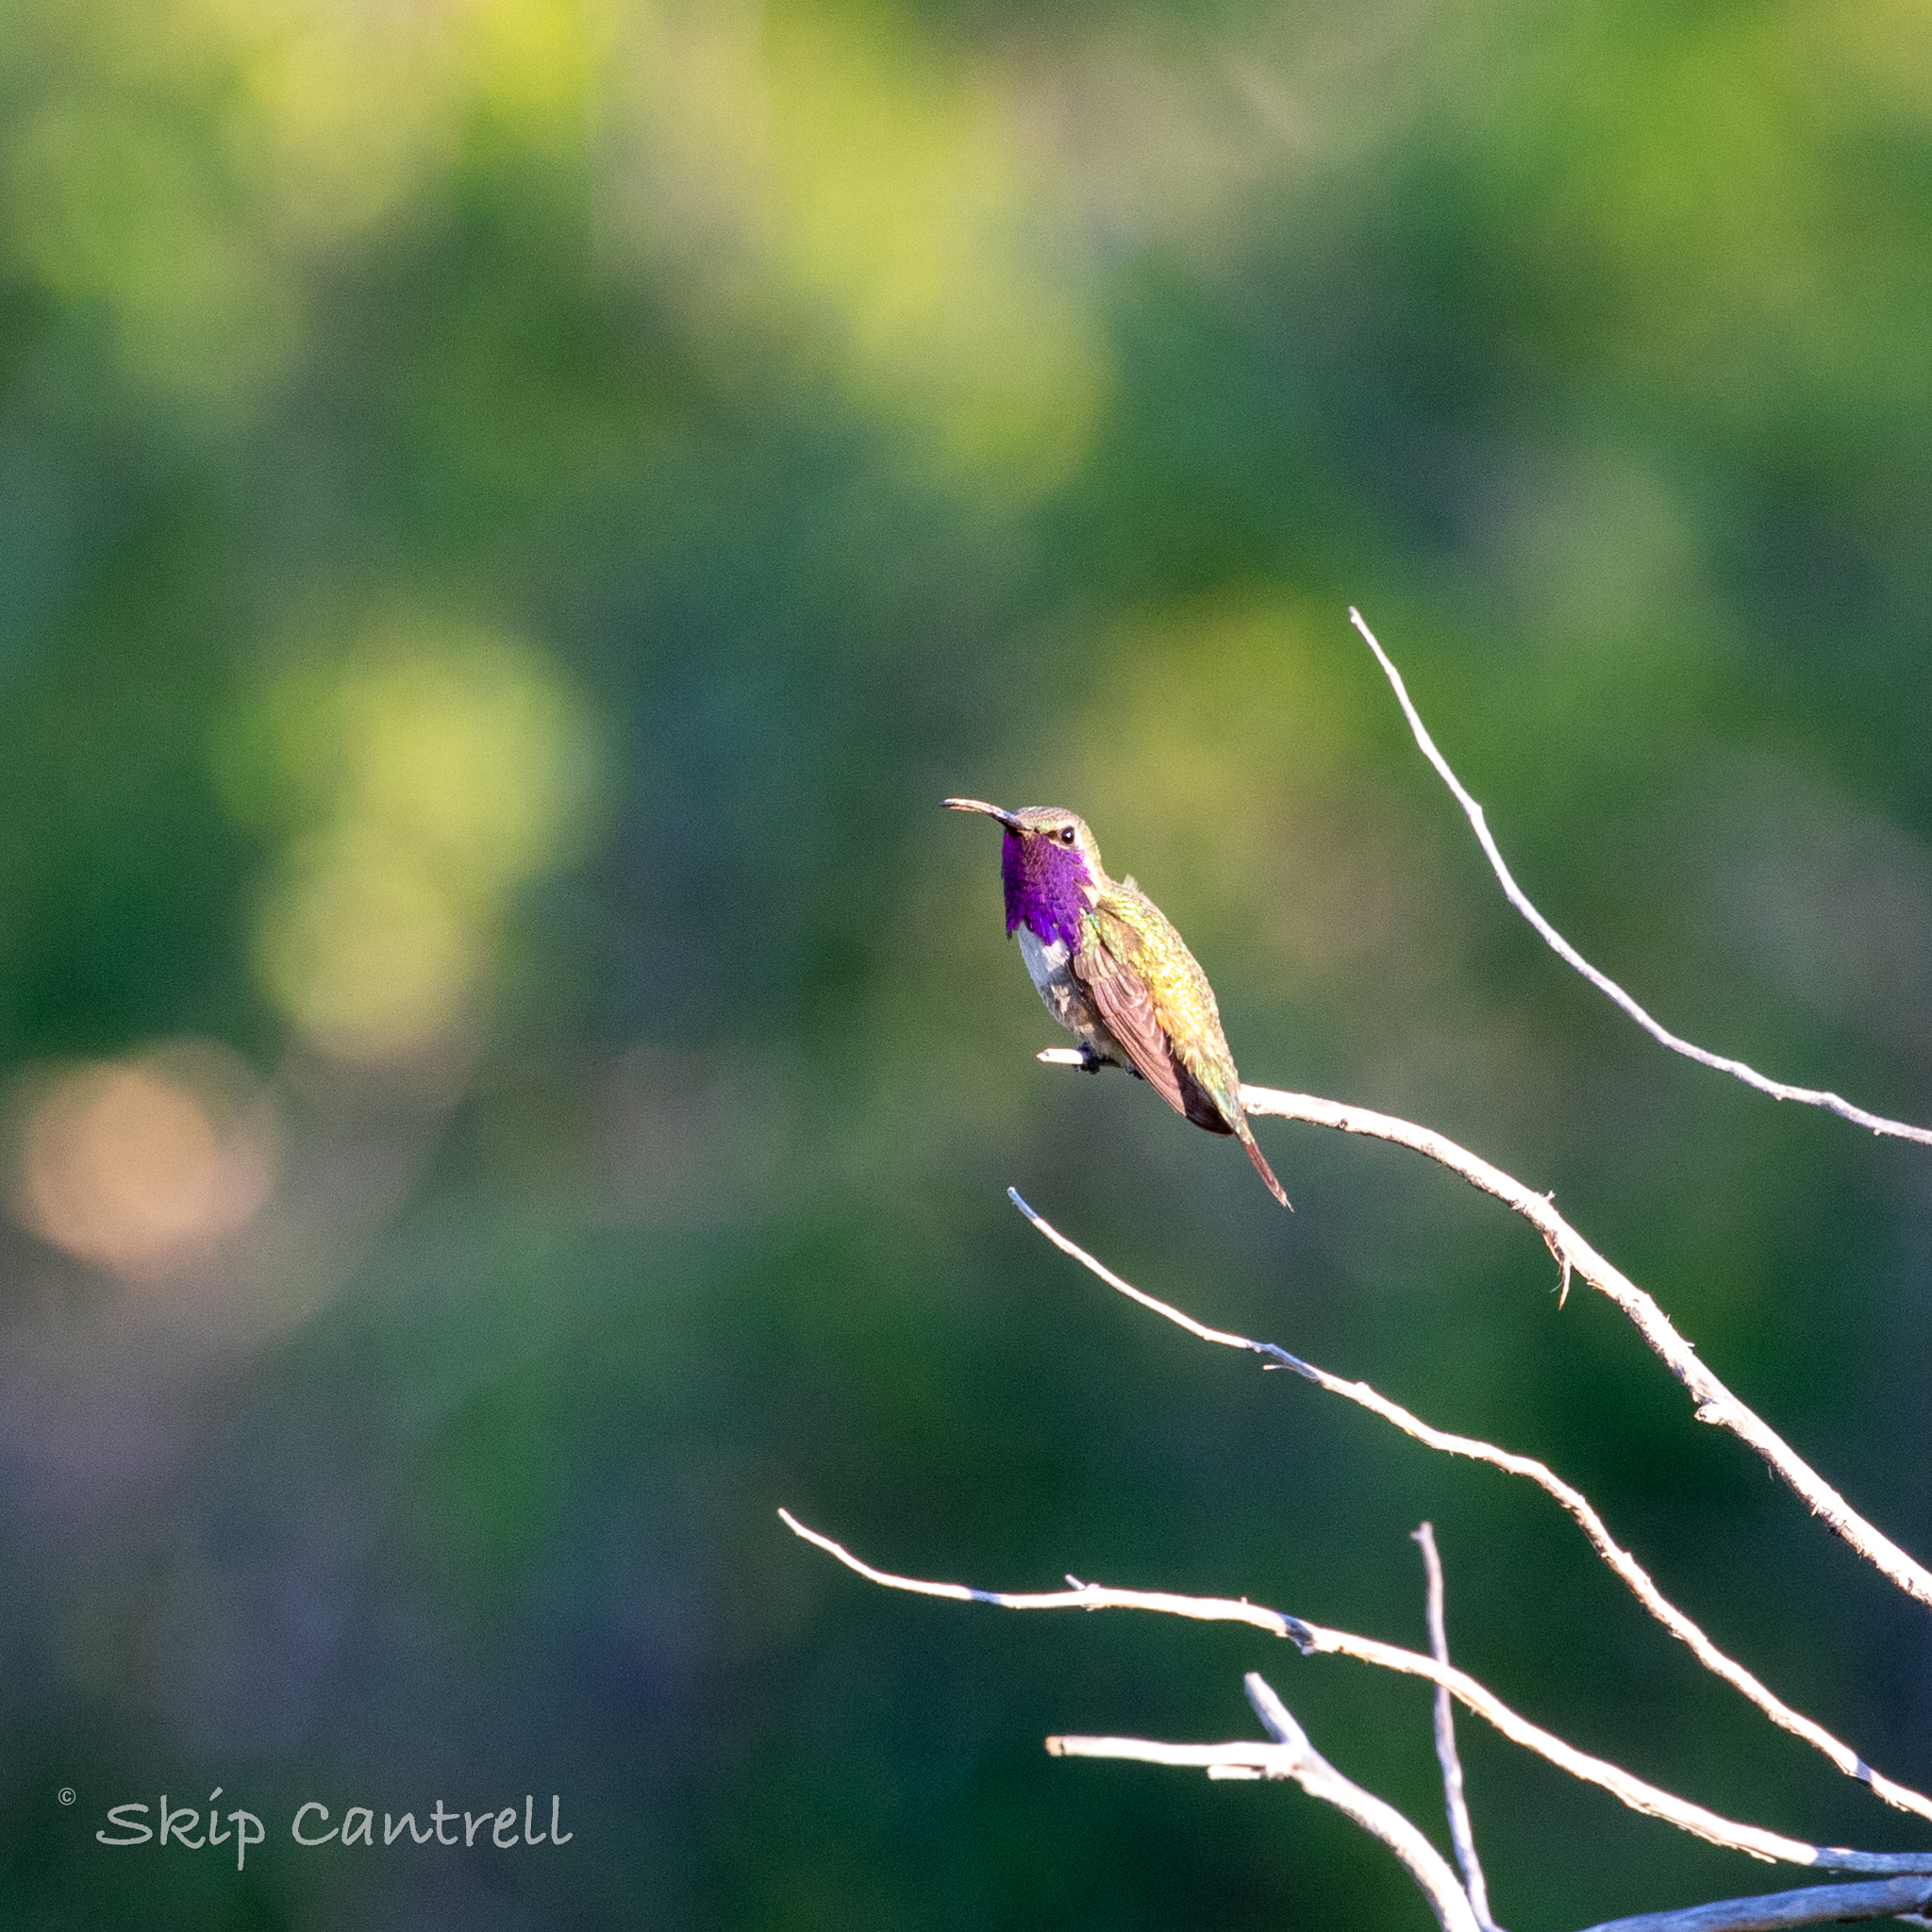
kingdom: Animalia
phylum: Chordata
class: Aves
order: Apodiformes
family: Trochilidae
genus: Calothorax
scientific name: Calothorax lucifer
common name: Lucifer sheartail
